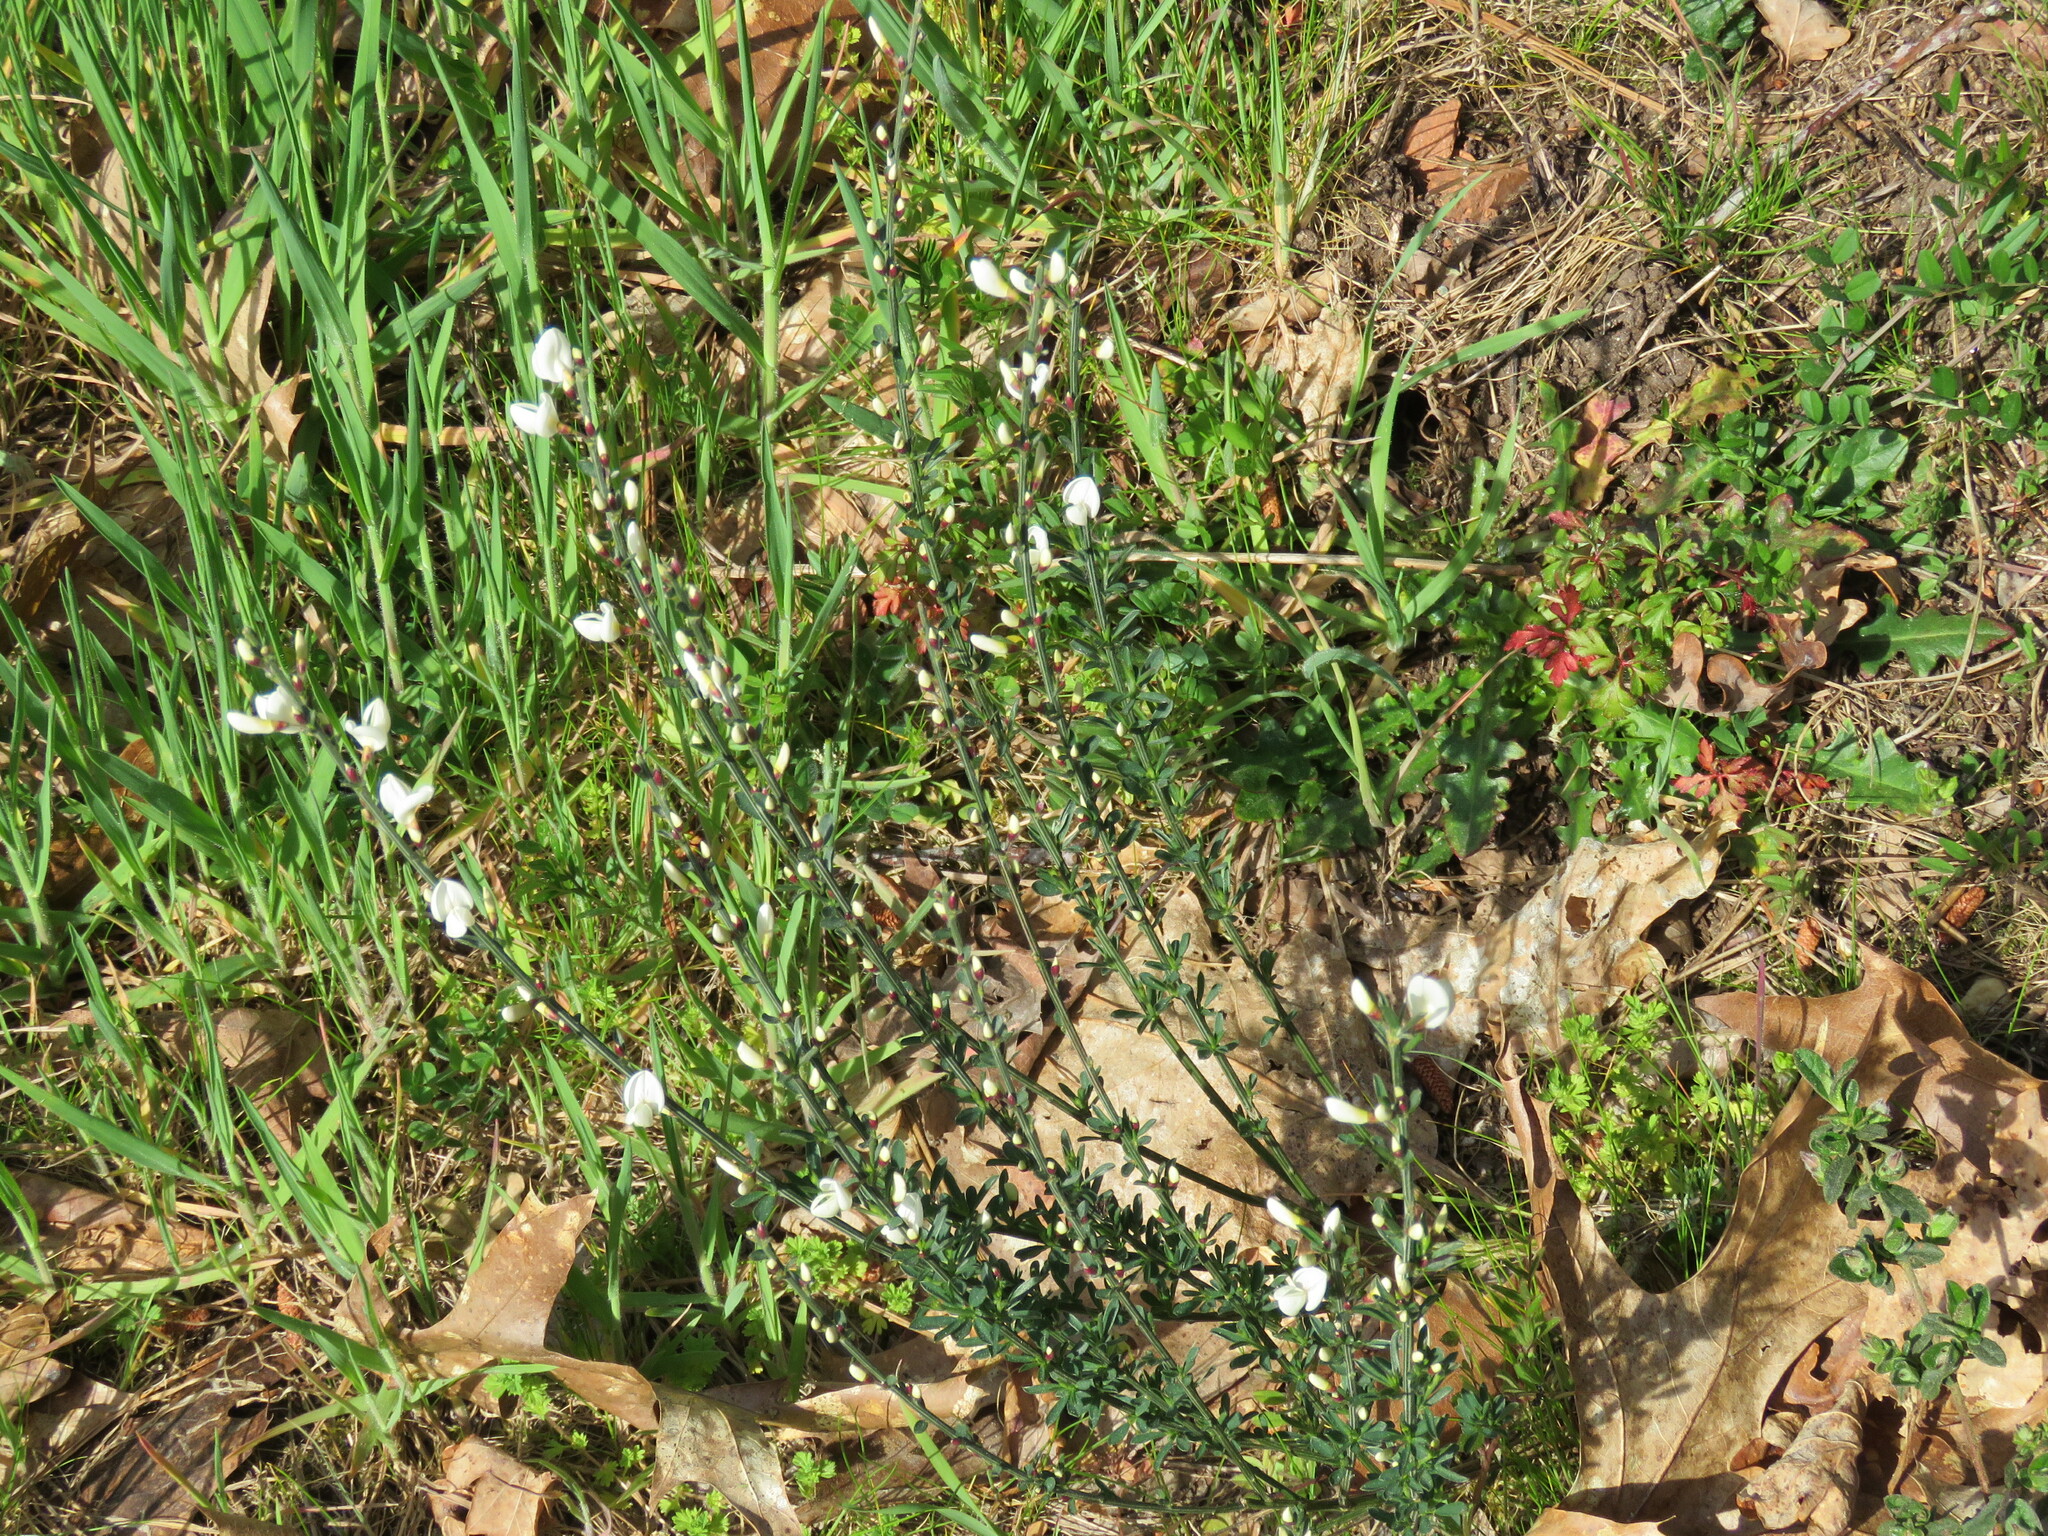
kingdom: Plantae
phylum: Tracheophyta
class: Magnoliopsida
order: Fabales
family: Fabaceae
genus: Cytisus
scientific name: Cytisus multiflorus
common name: White broom
